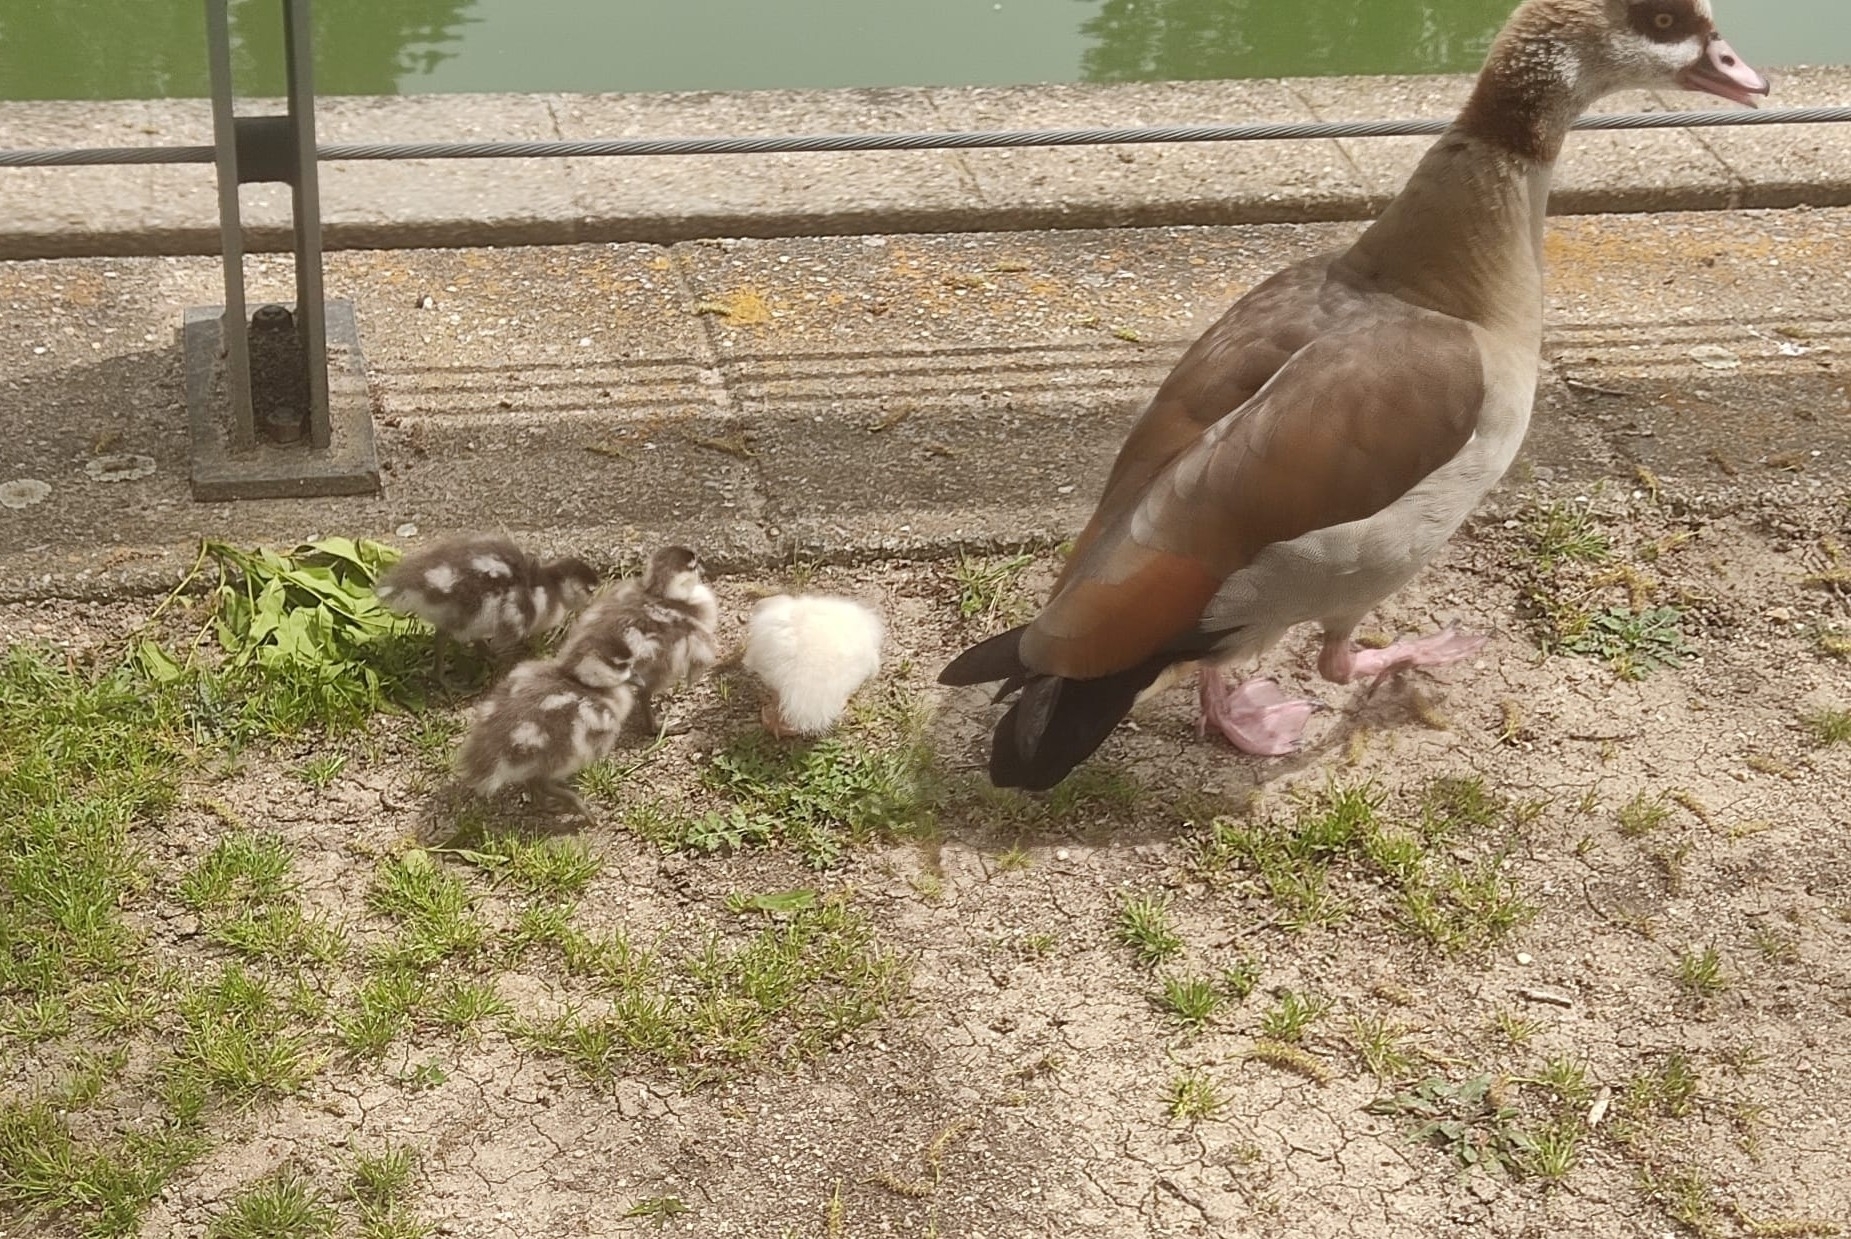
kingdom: Animalia
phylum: Chordata
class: Aves
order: Anseriformes
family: Anatidae
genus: Alopochen
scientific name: Alopochen aegyptiaca
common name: Egyptian goose
